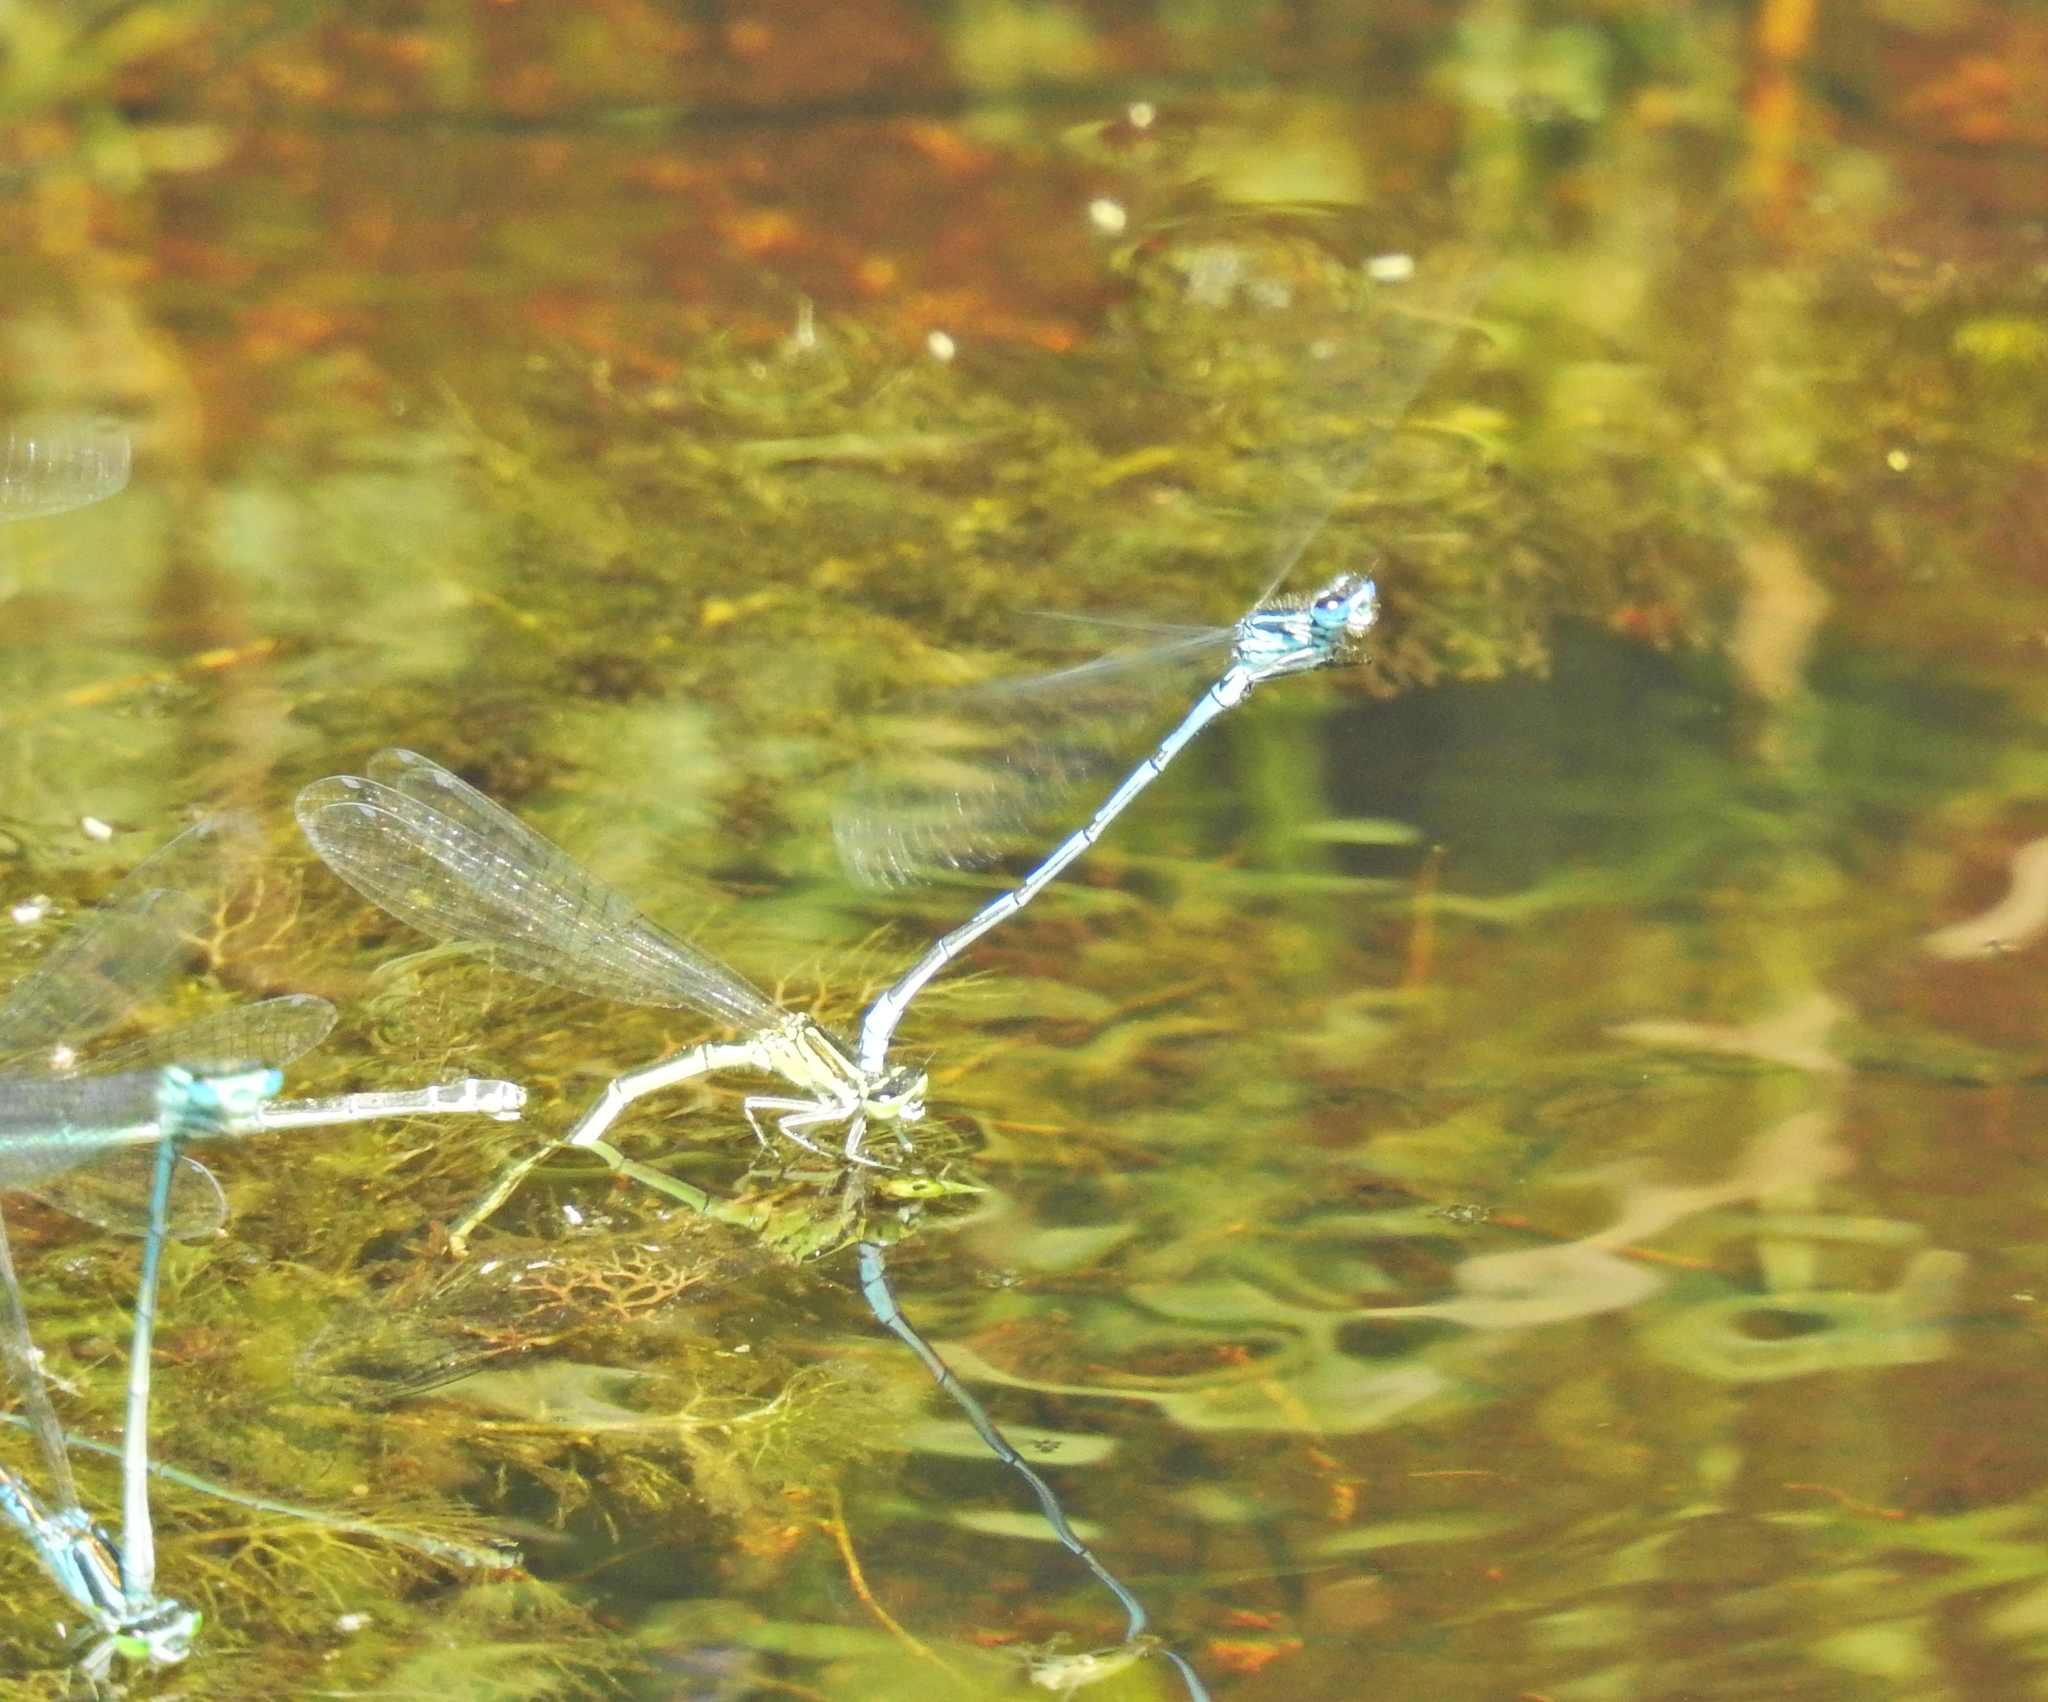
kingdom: Animalia
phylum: Arthropoda
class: Insecta
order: Odonata
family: Coenagrionidae
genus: Coenagrion
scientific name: Coenagrion puella
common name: Azure damselfly
